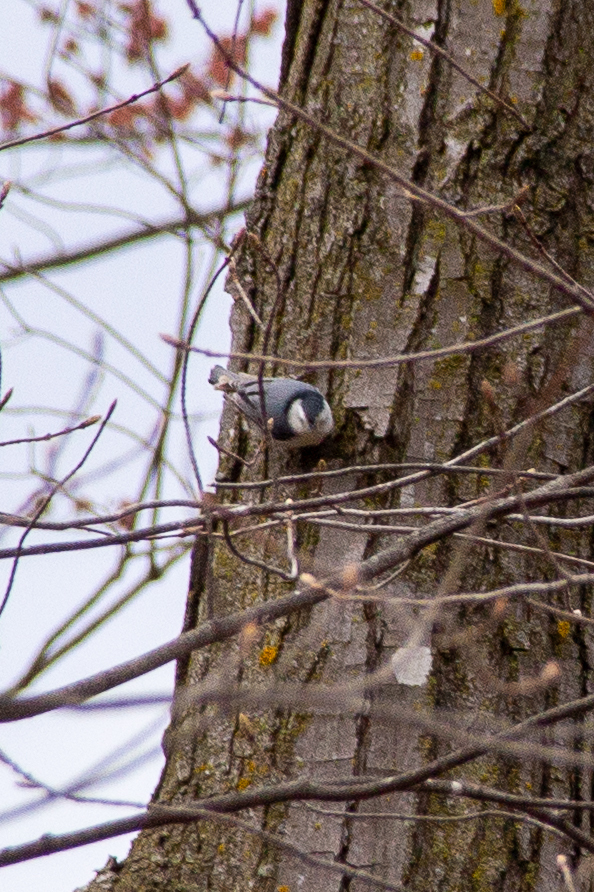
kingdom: Animalia
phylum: Chordata
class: Aves
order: Passeriformes
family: Sittidae
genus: Sitta
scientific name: Sitta carolinensis
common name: White-breasted nuthatch
